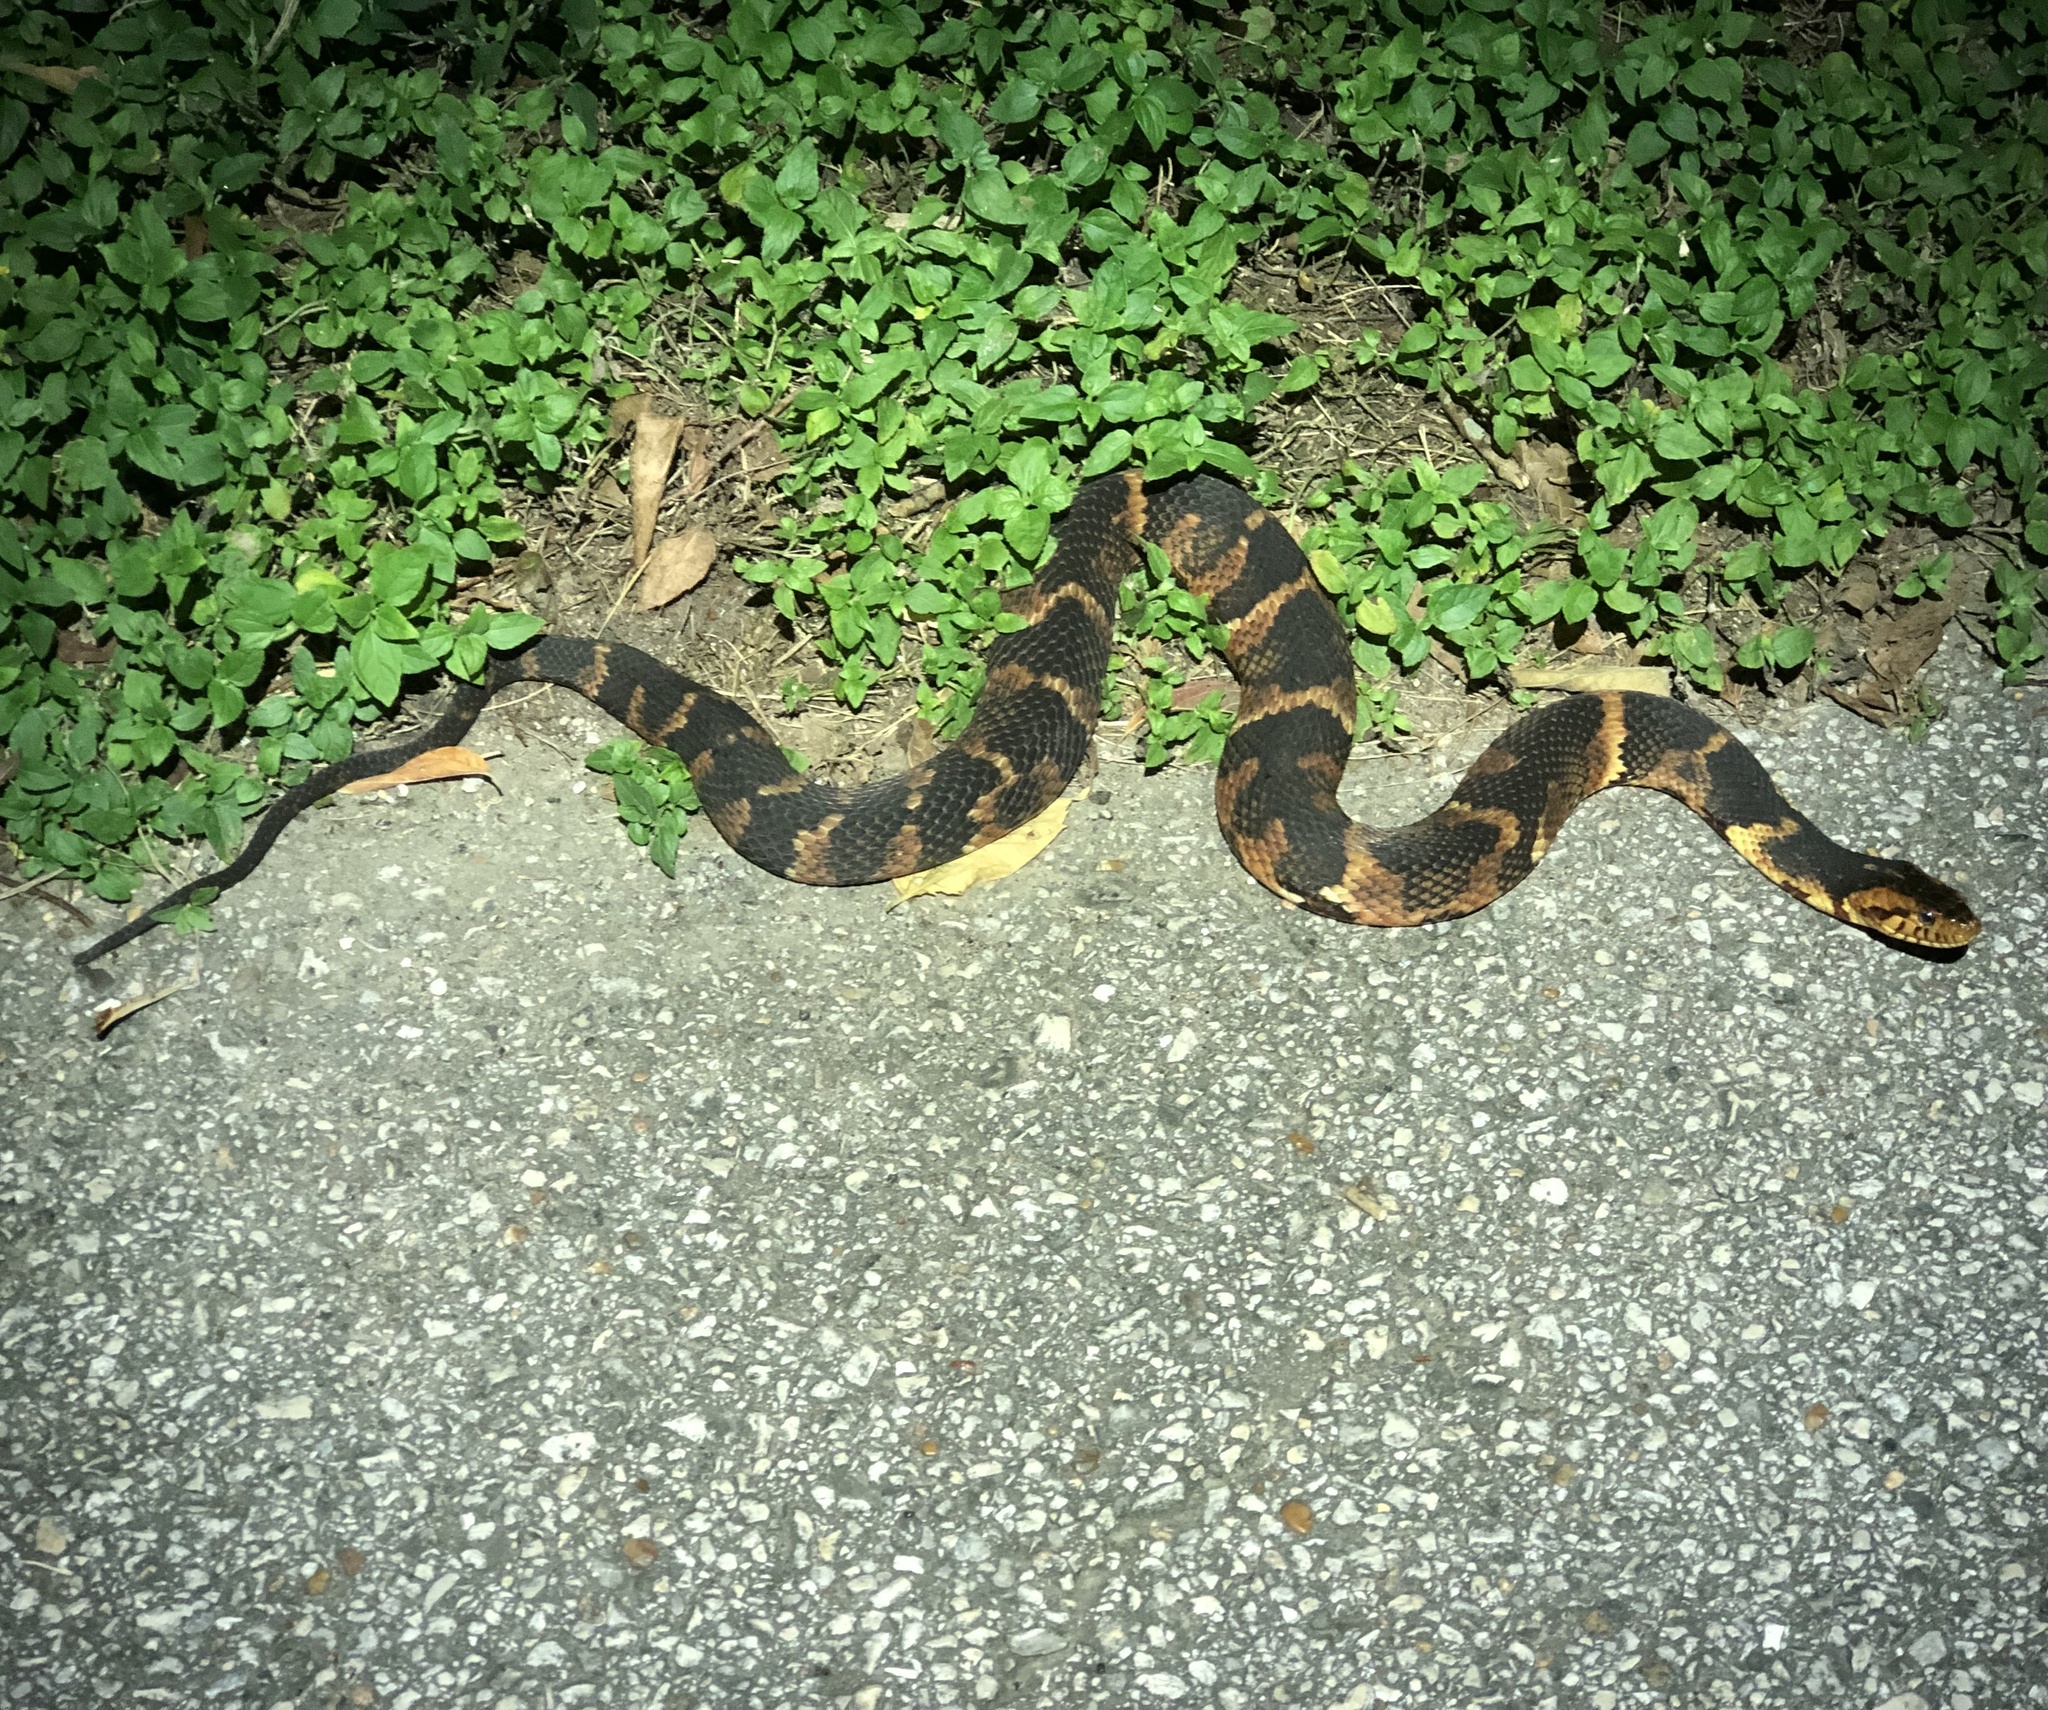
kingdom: Animalia
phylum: Chordata
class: Squamata
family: Colubridae
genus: Nerodia
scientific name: Nerodia fasciata
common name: Southern water snake
